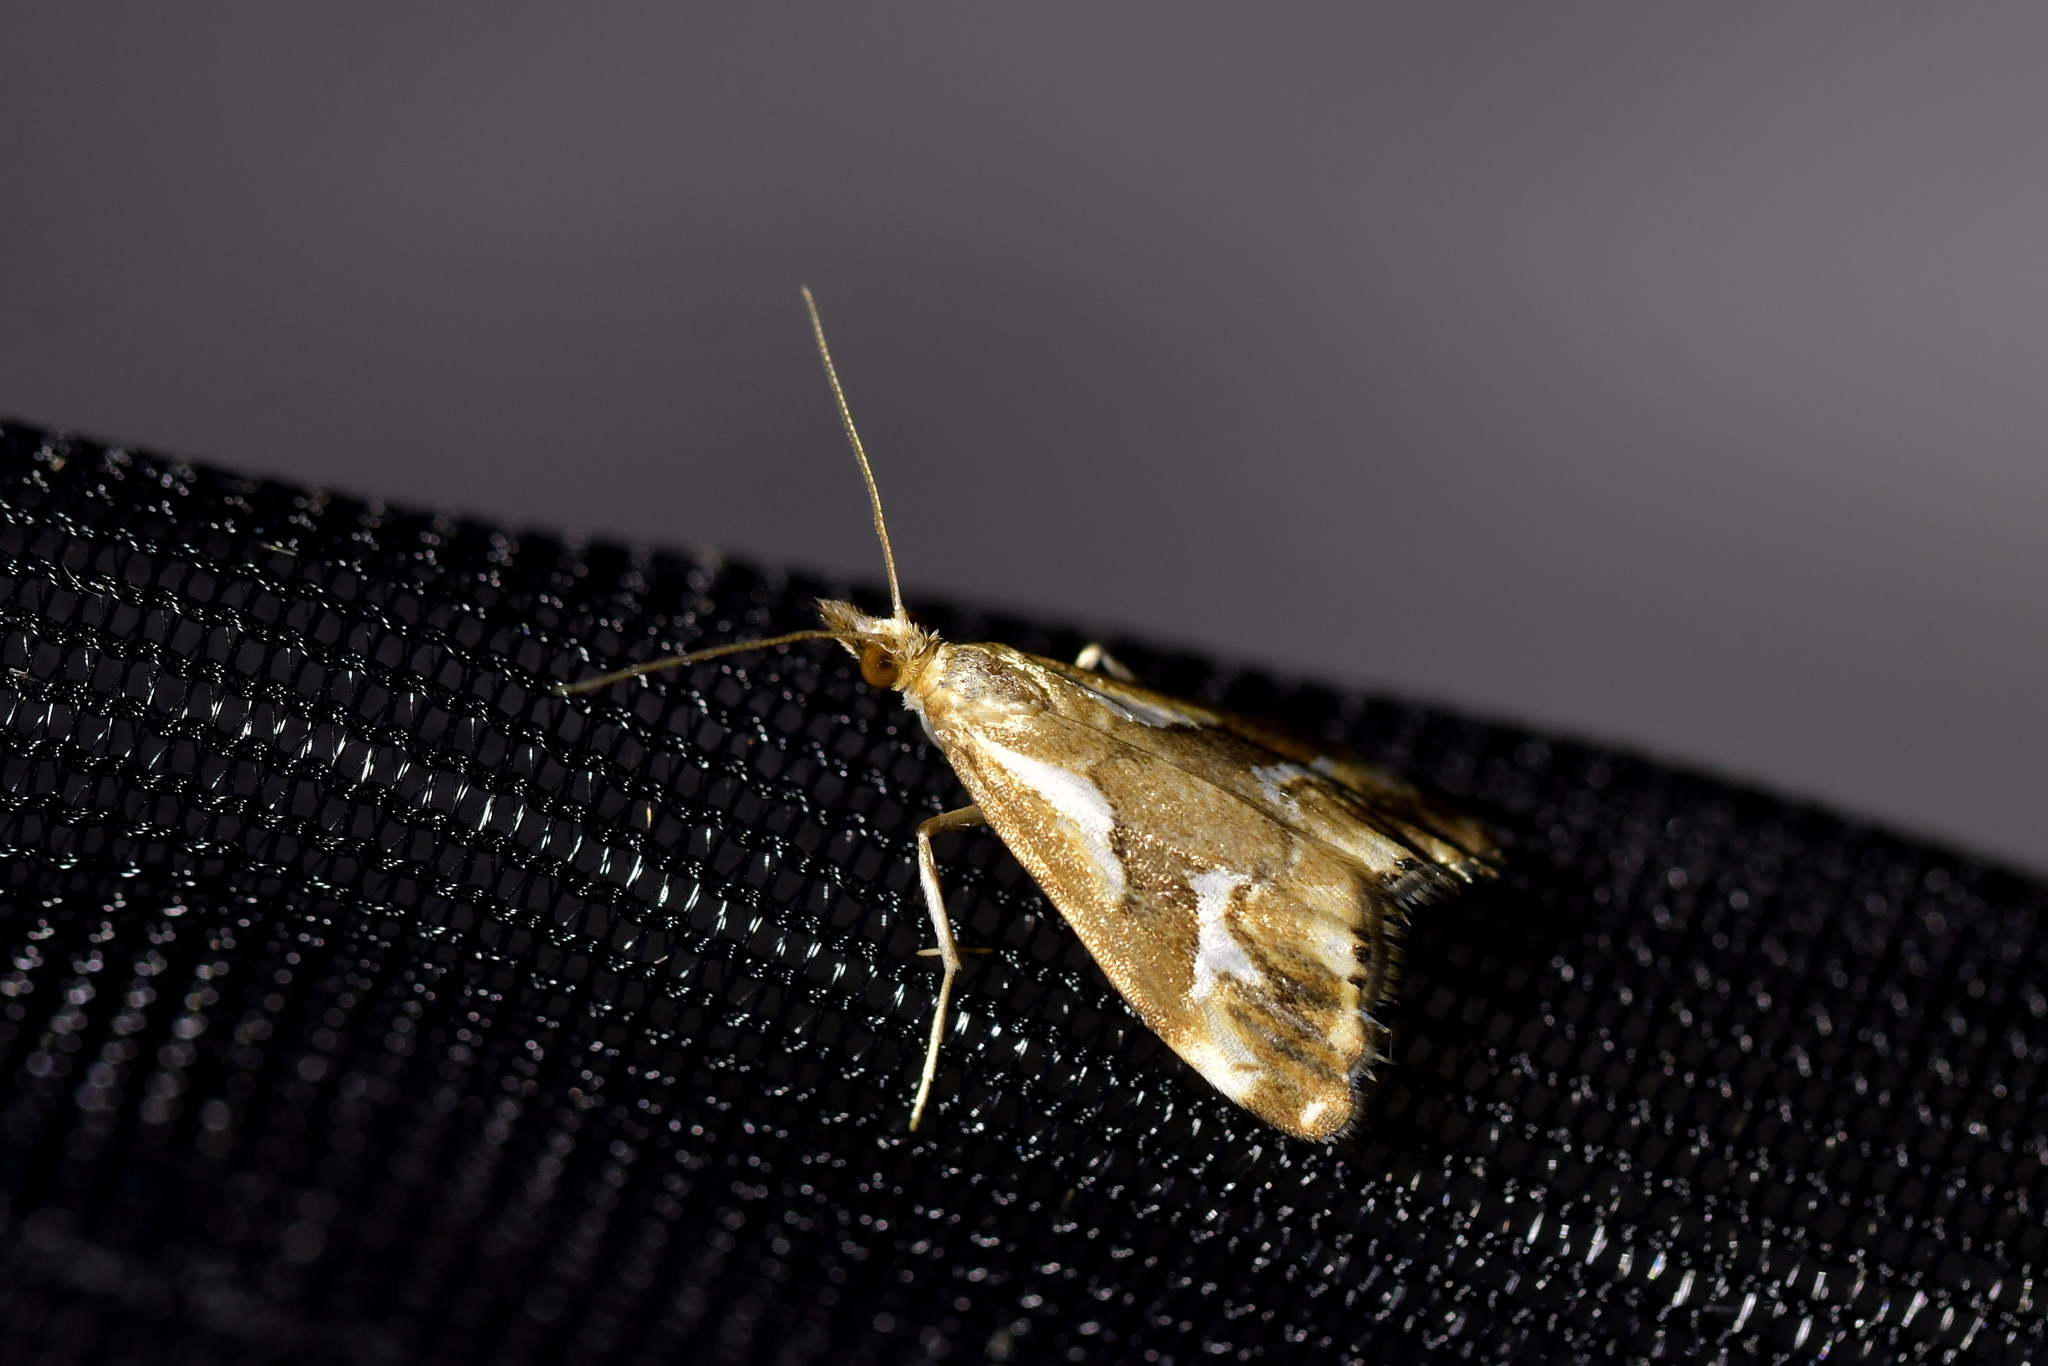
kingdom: Animalia
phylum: Arthropoda
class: Insecta
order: Lepidoptera
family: Crambidae
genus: Glaucocharis
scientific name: Glaucocharis interruptus
